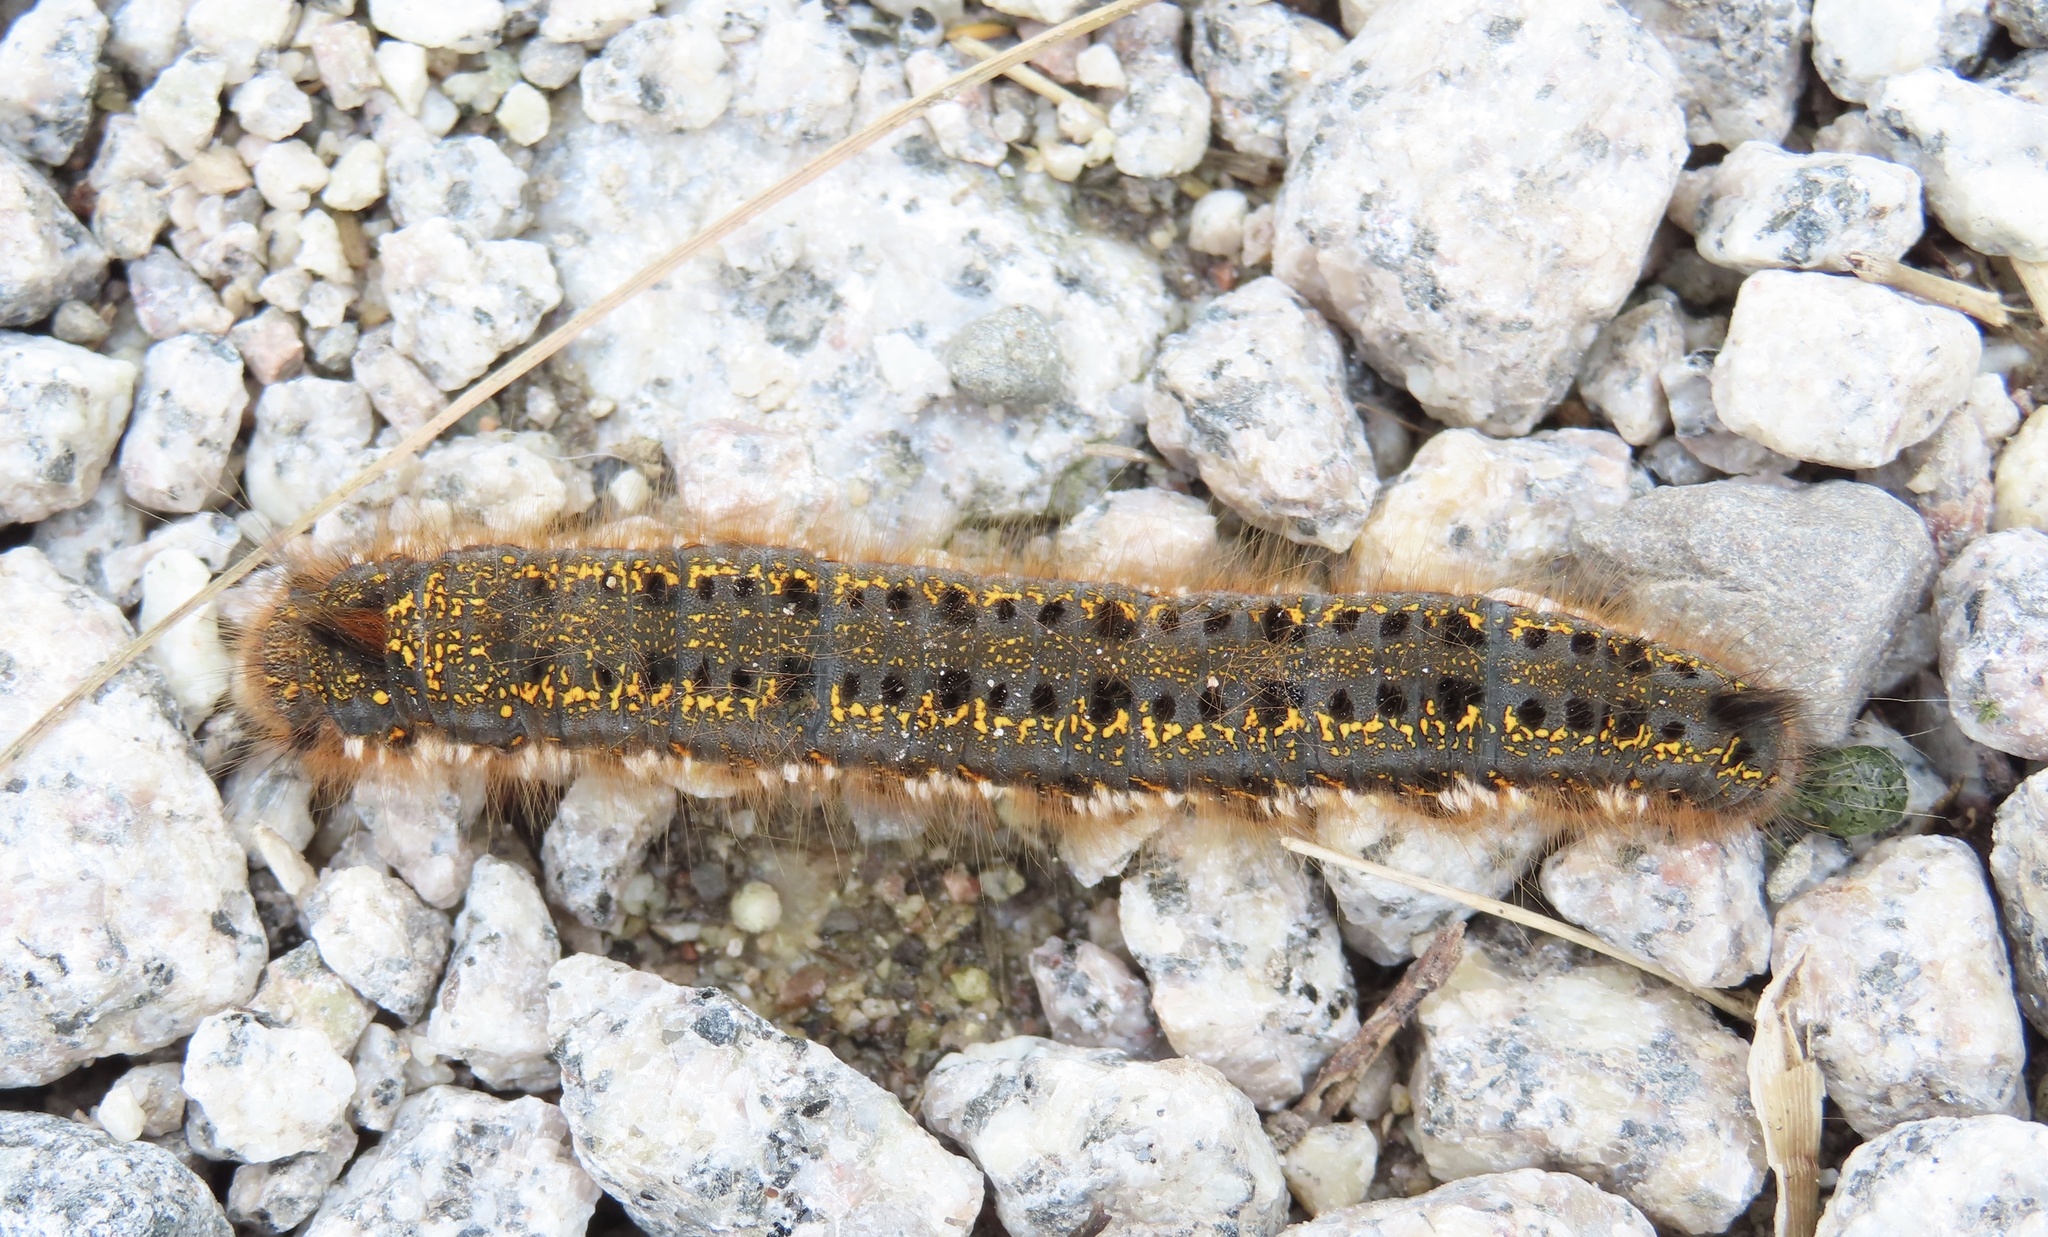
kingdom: Animalia
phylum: Arthropoda
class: Insecta
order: Lepidoptera
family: Lasiocampidae
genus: Euthrix
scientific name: Euthrix potatoria
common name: Drinker
